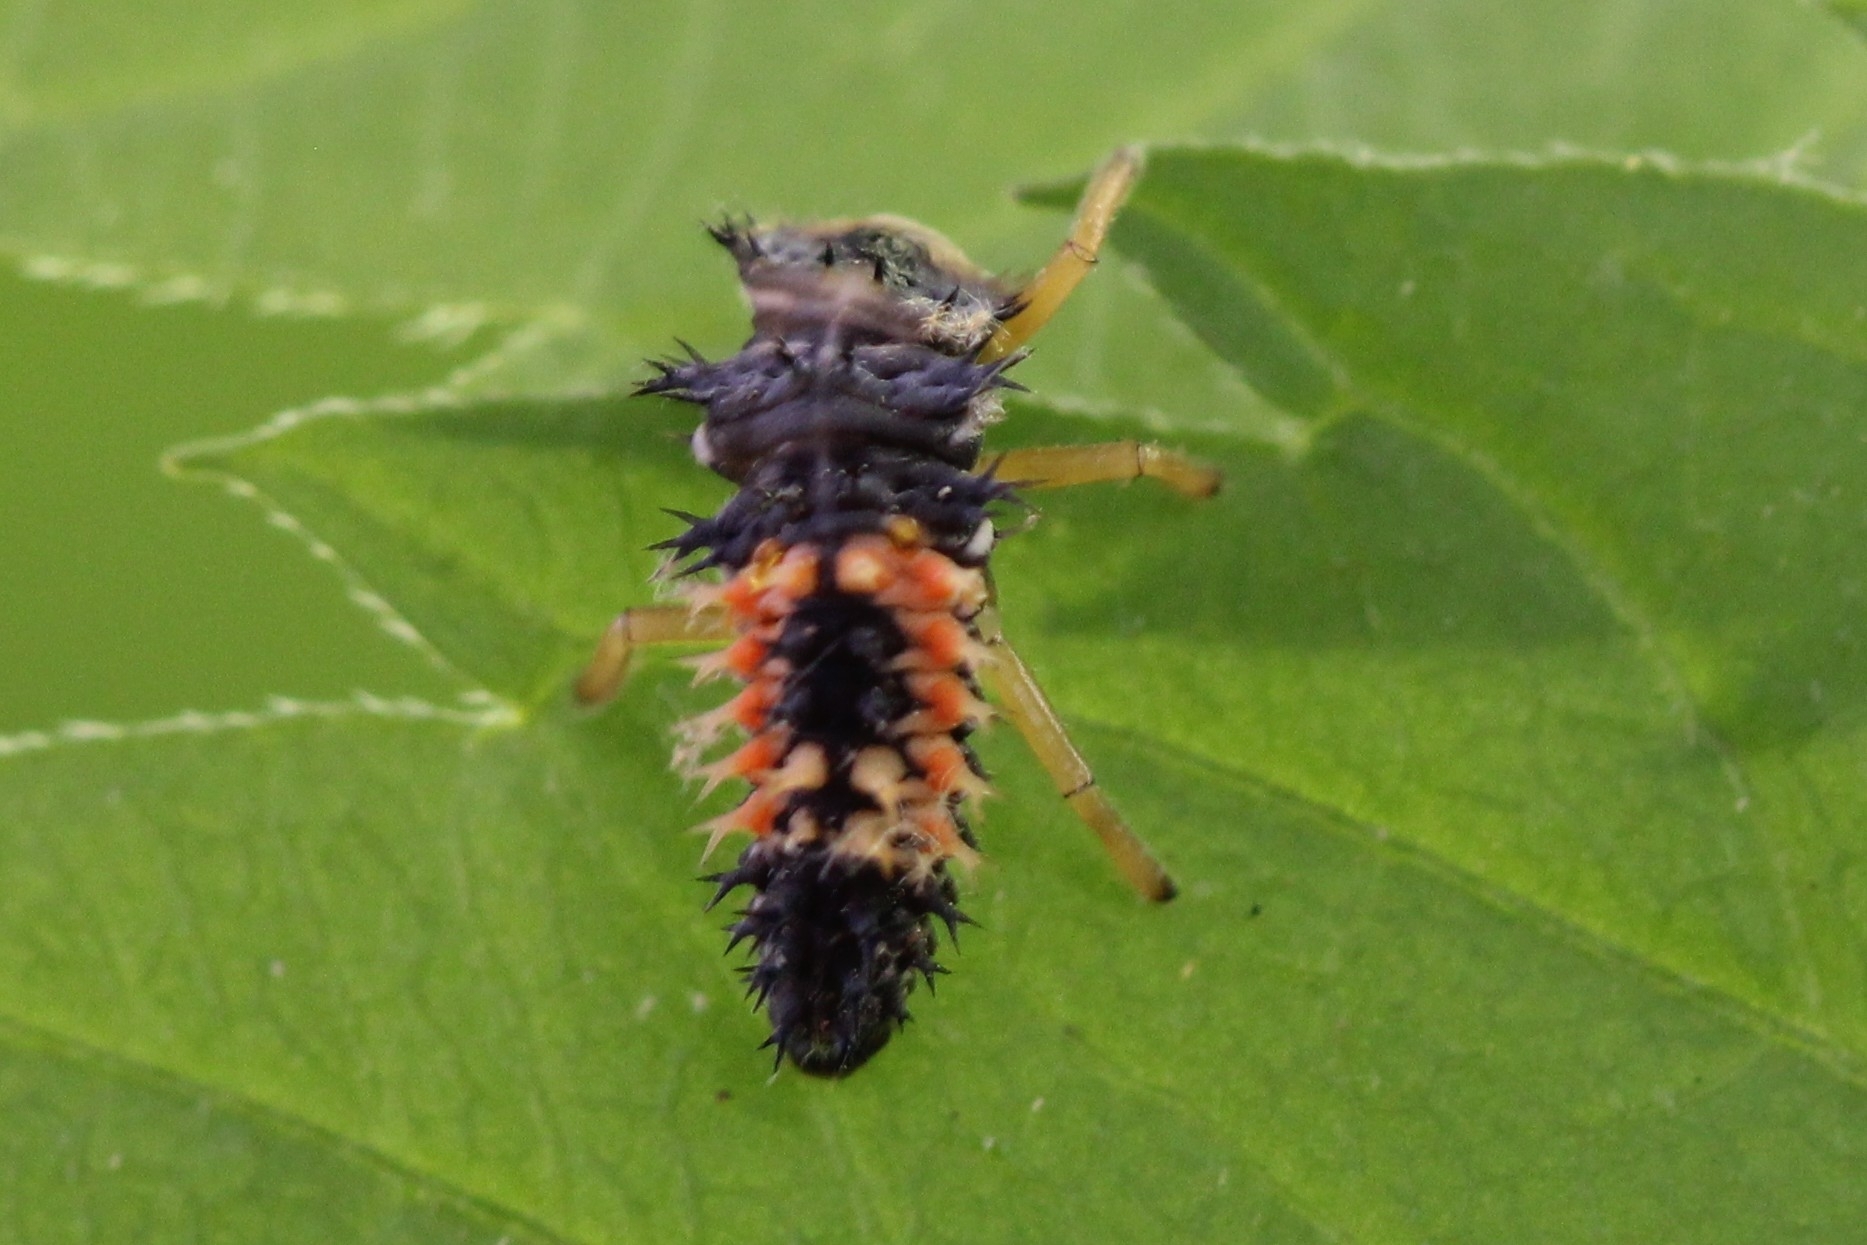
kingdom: Animalia
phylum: Arthropoda
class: Insecta
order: Coleoptera
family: Coccinellidae
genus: Harmonia
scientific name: Harmonia axyridis
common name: Harlequin ladybird
